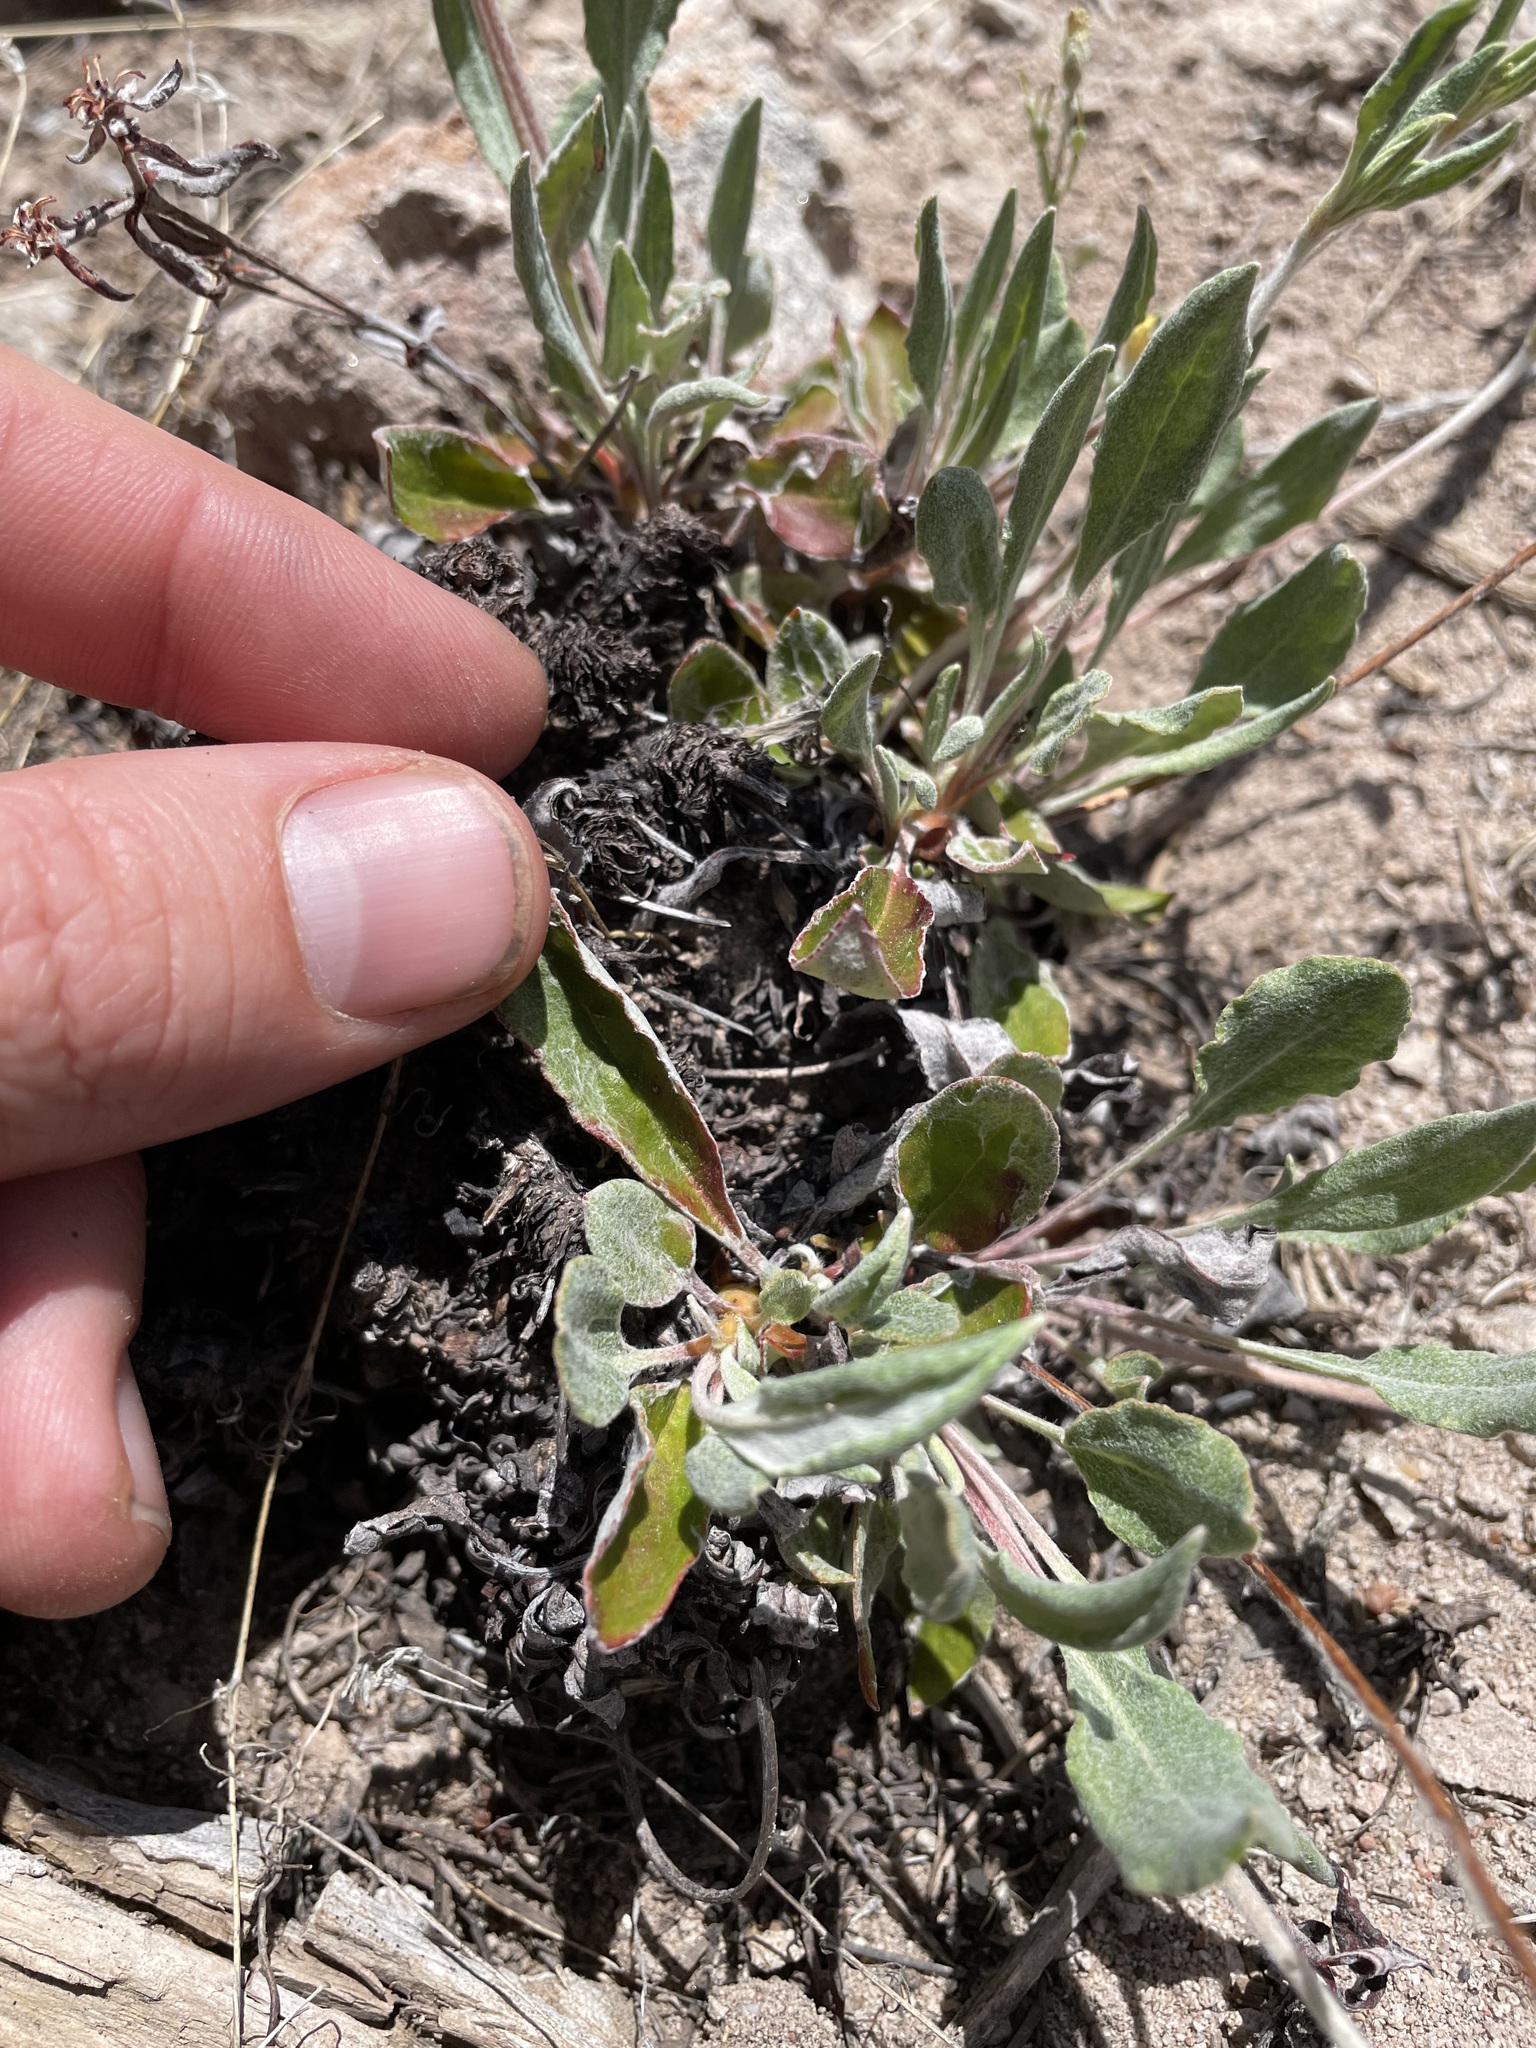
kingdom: Plantae
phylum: Tracheophyta
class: Magnoliopsida
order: Caryophyllales
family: Polygonaceae
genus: Eriogonum
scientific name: Eriogonum jamesii
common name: Antelope-sage
